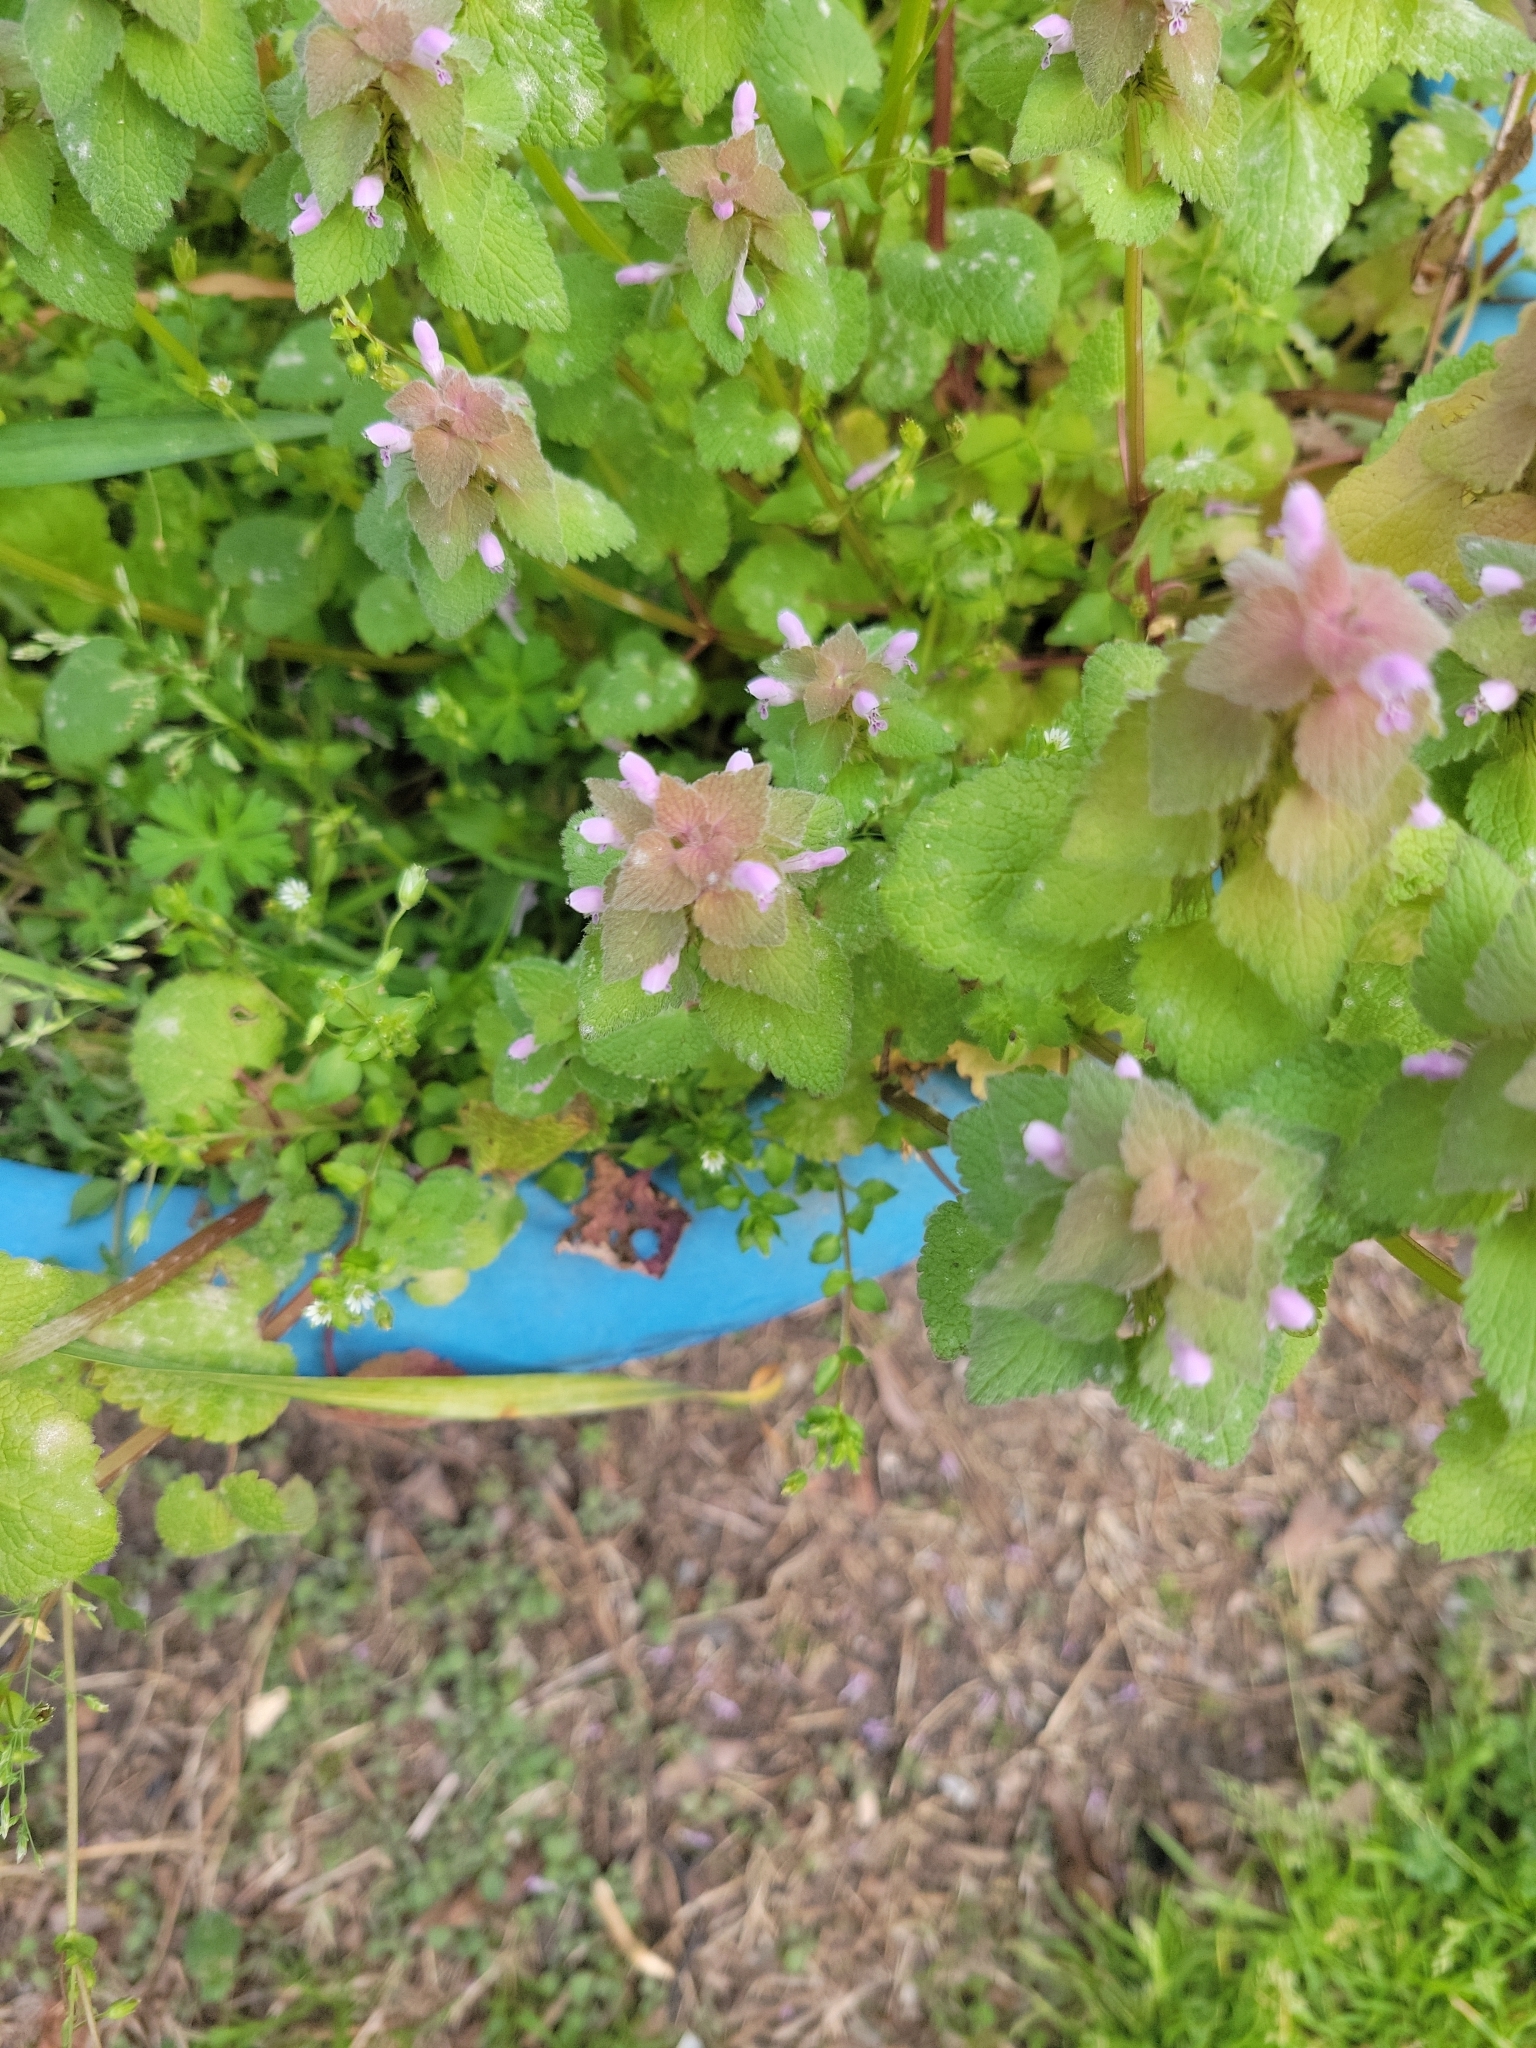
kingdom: Plantae
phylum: Tracheophyta
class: Magnoliopsida
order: Lamiales
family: Lamiaceae
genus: Lamium
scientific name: Lamium purpureum
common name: Red dead-nettle
